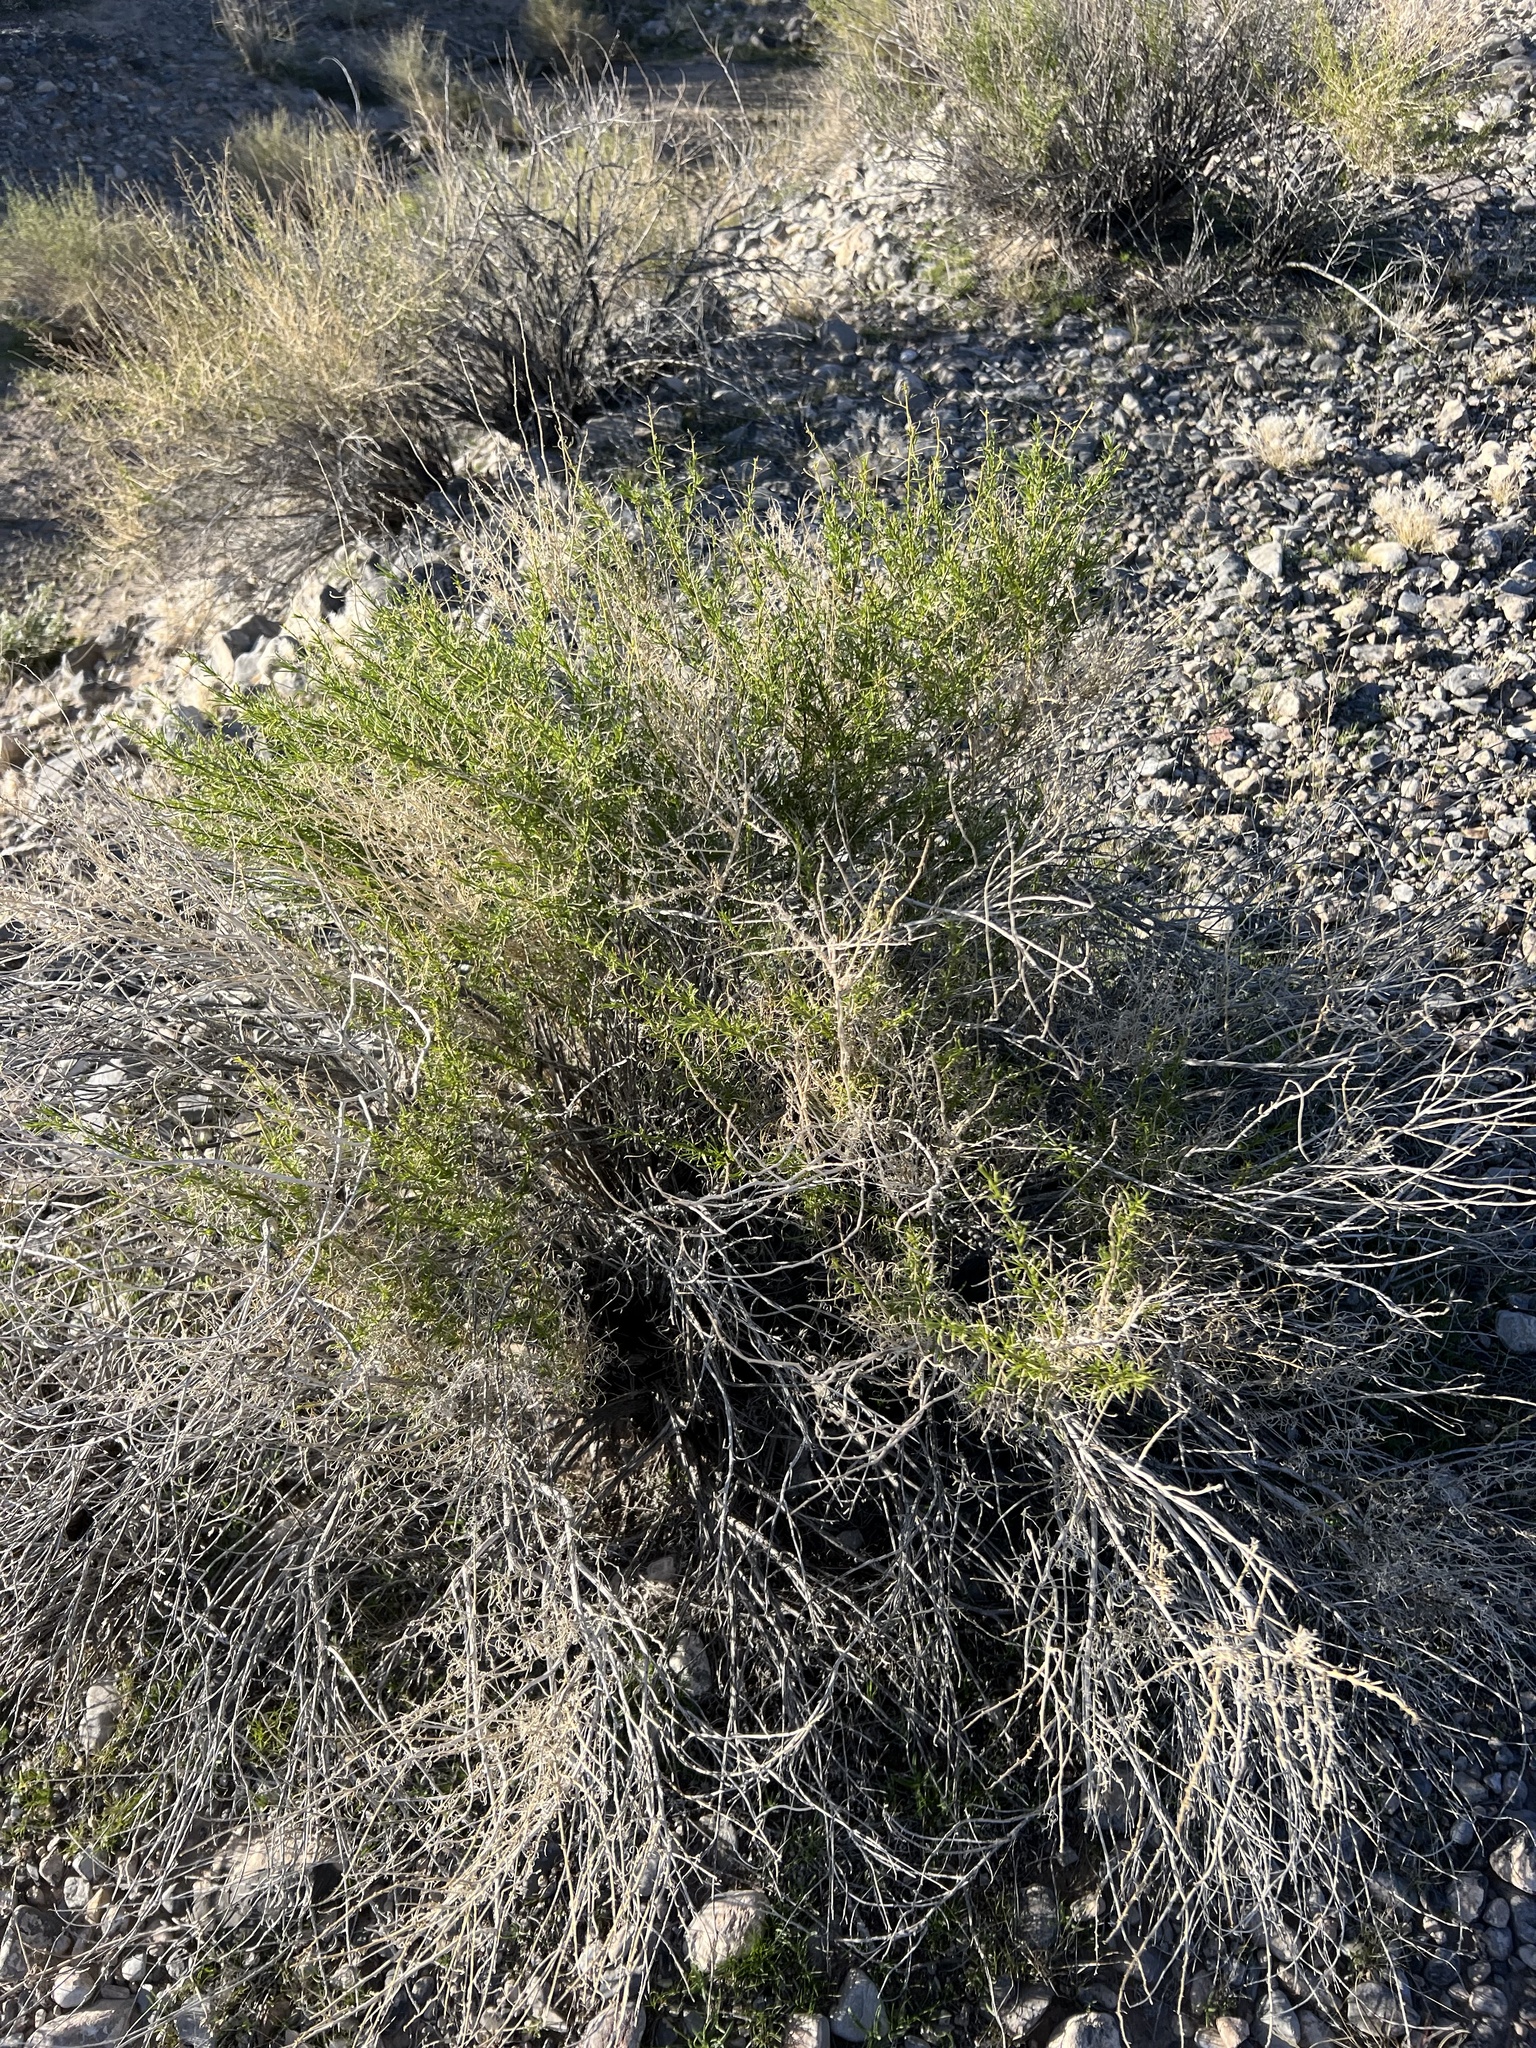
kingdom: Plantae
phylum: Tracheophyta
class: Magnoliopsida
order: Asterales
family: Asteraceae
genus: Ambrosia
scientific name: Ambrosia salsola
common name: Burrobrush
